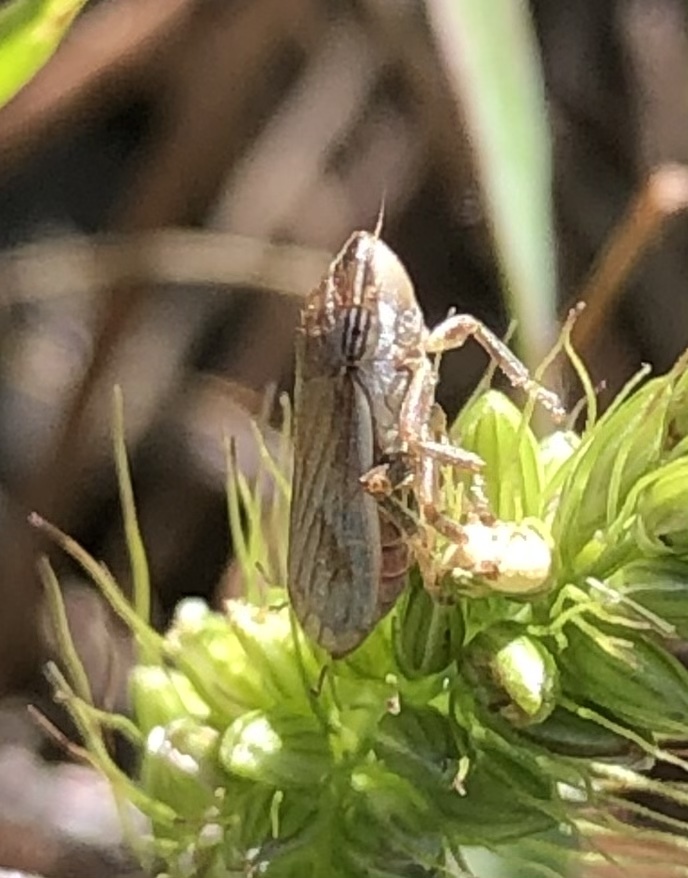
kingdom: Animalia
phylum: Arthropoda
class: Insecta
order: Hemiptera
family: Aphrophoridae
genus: Philaenus
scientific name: Philaenus spumarius
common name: Meadow spittlebug
